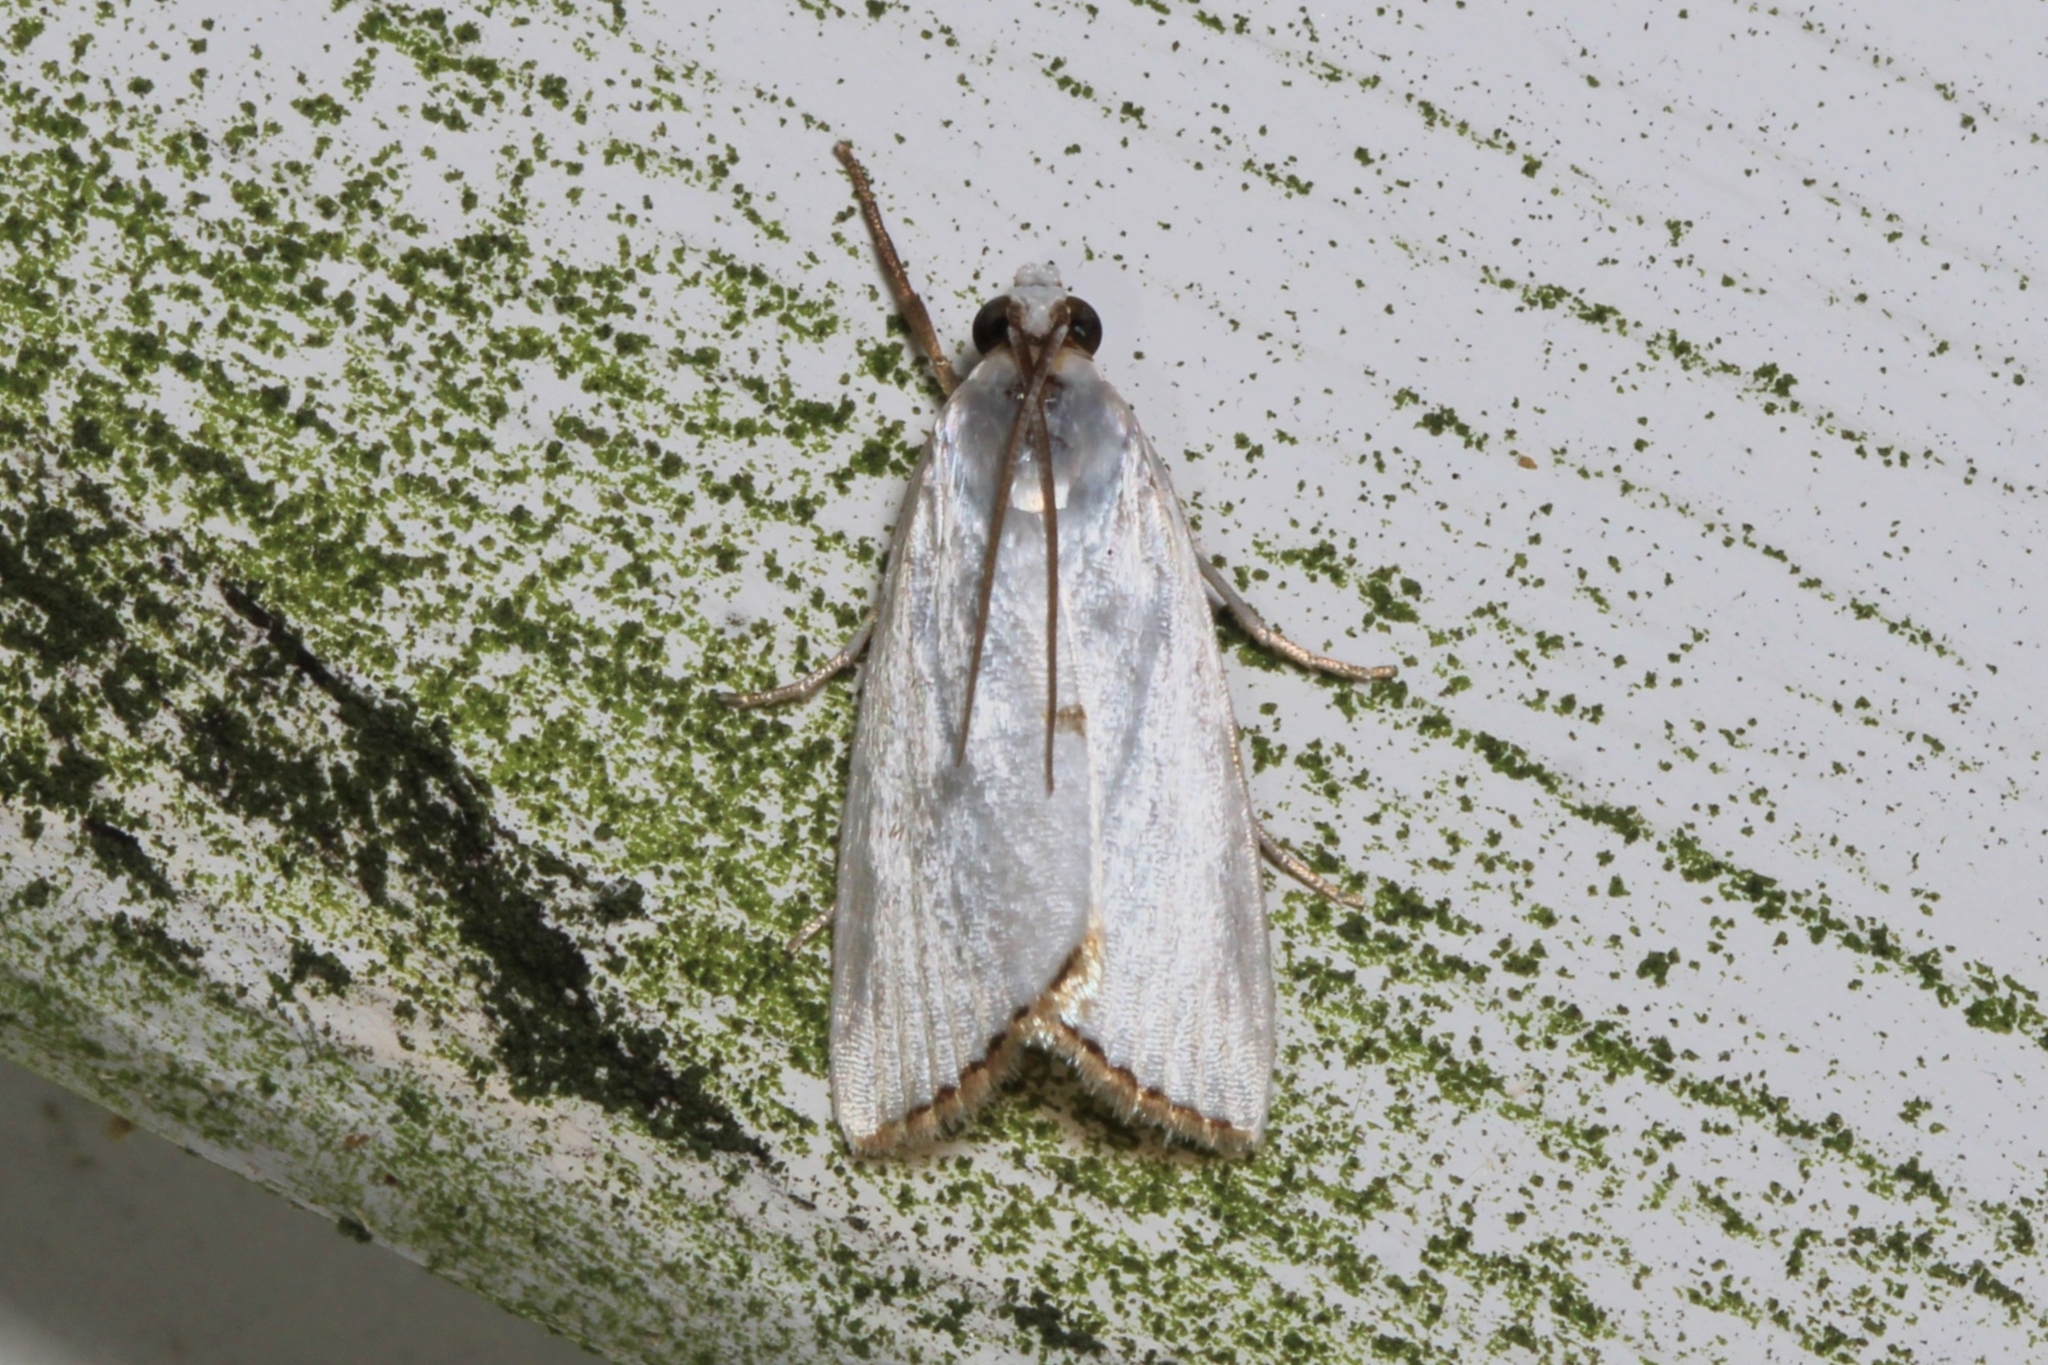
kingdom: Animalia
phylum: Arthropoda
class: Insecta
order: Lepidoptera
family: Crambidae
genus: Argyria
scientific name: Argyria nivalis
